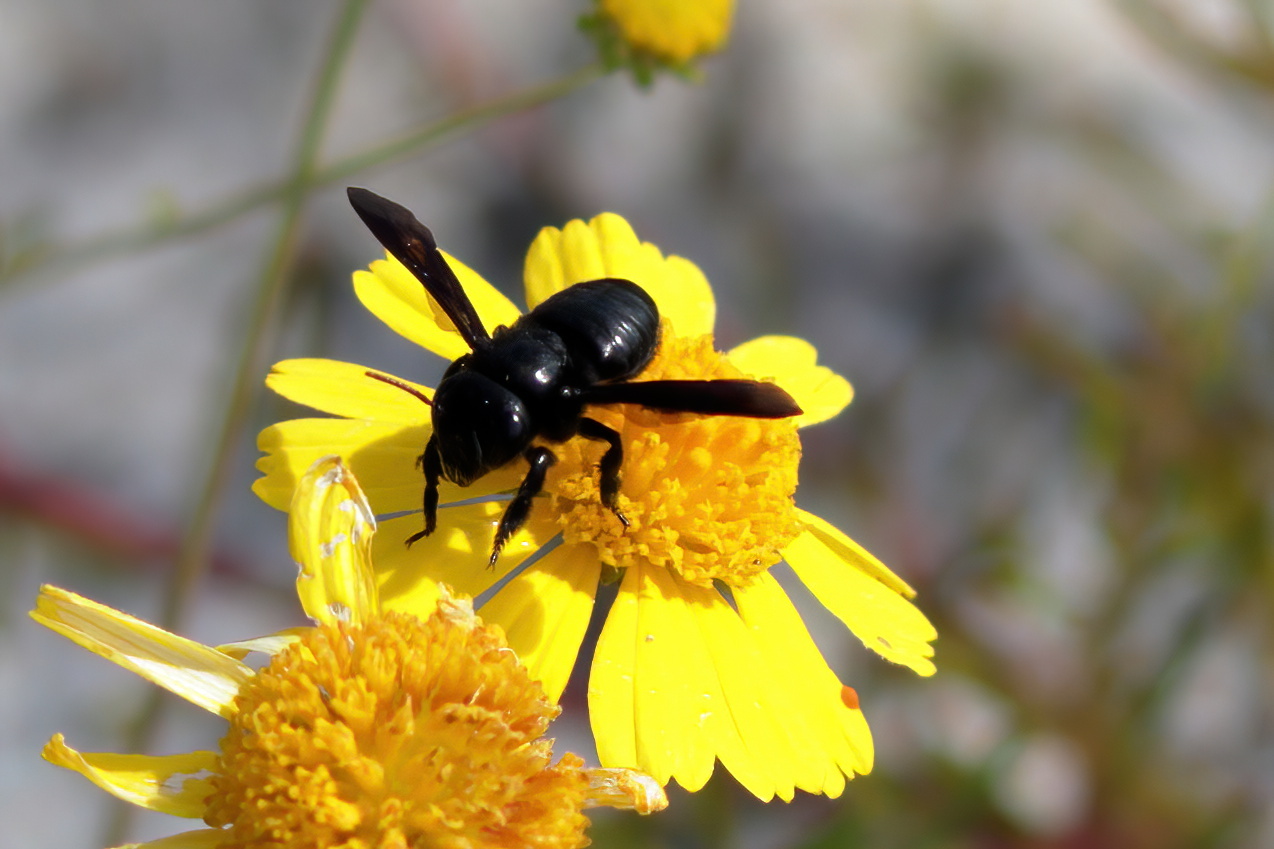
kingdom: Animalia
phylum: Arthropoda
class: Insecta
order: Hymenoptera
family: Megachilidae
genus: Megachile
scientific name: Megachile xylocopoides
